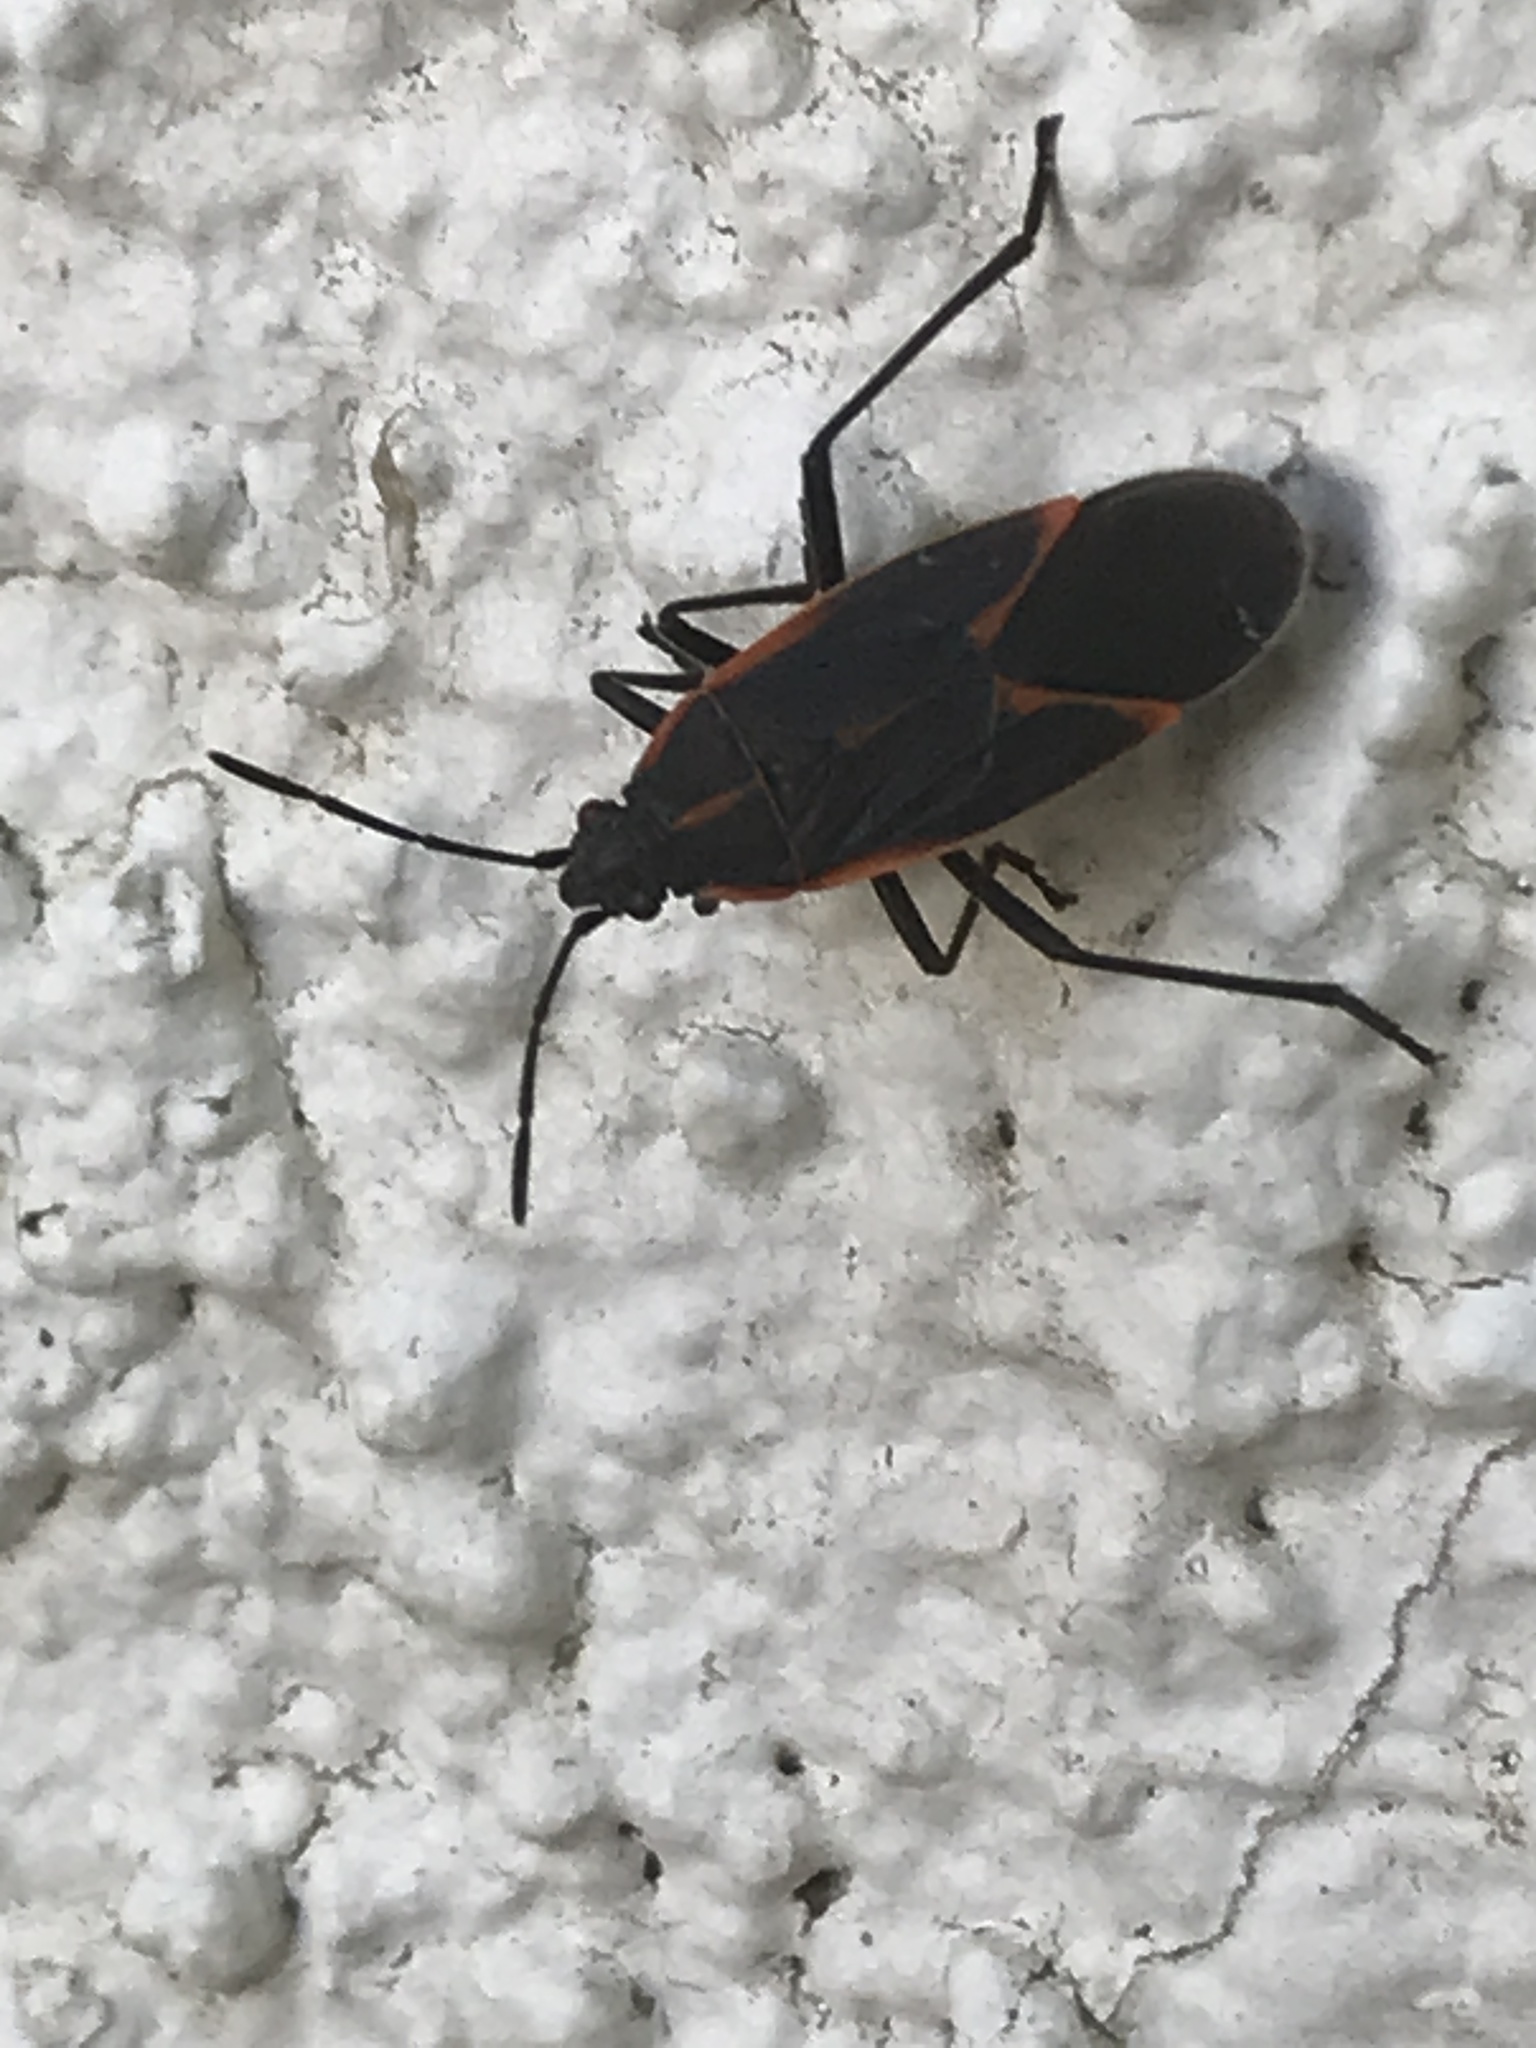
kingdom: Animalia
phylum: Arthropoda
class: Insecta
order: Hemiptera
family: Rhopalidae
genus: Boisea
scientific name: Boisea trivittata
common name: Boxelder bug
